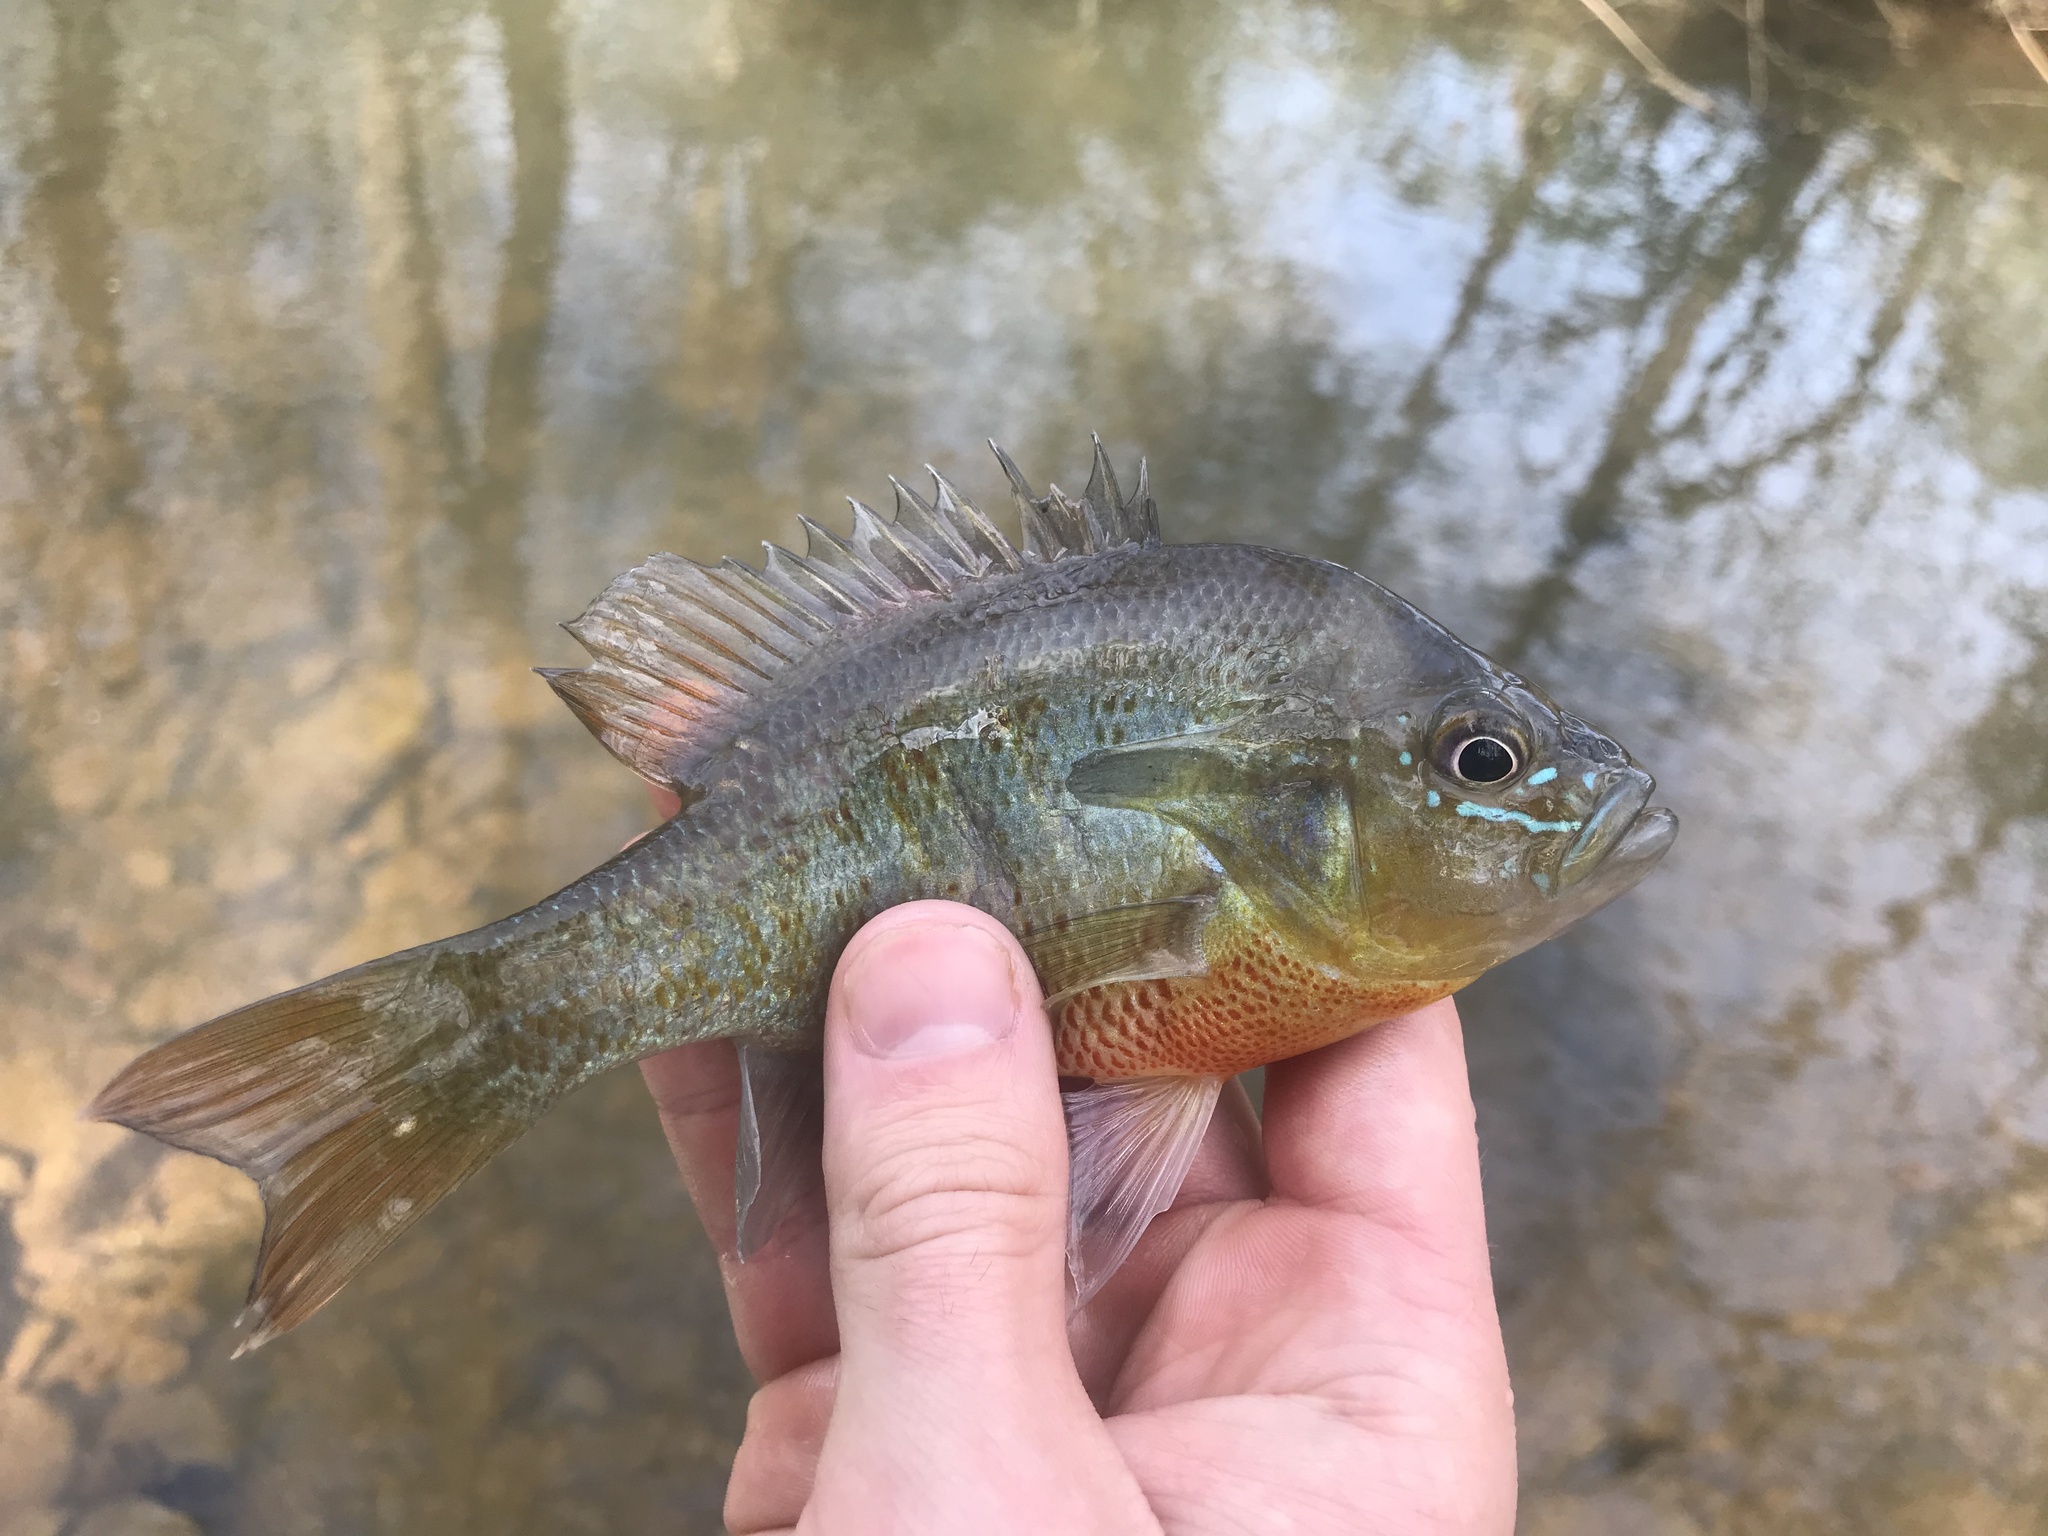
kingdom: Animalia
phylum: Chordata
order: Perciformes
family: Centrarchidae
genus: Lepomis
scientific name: Lepomis auritus
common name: Redbreast sunfish
